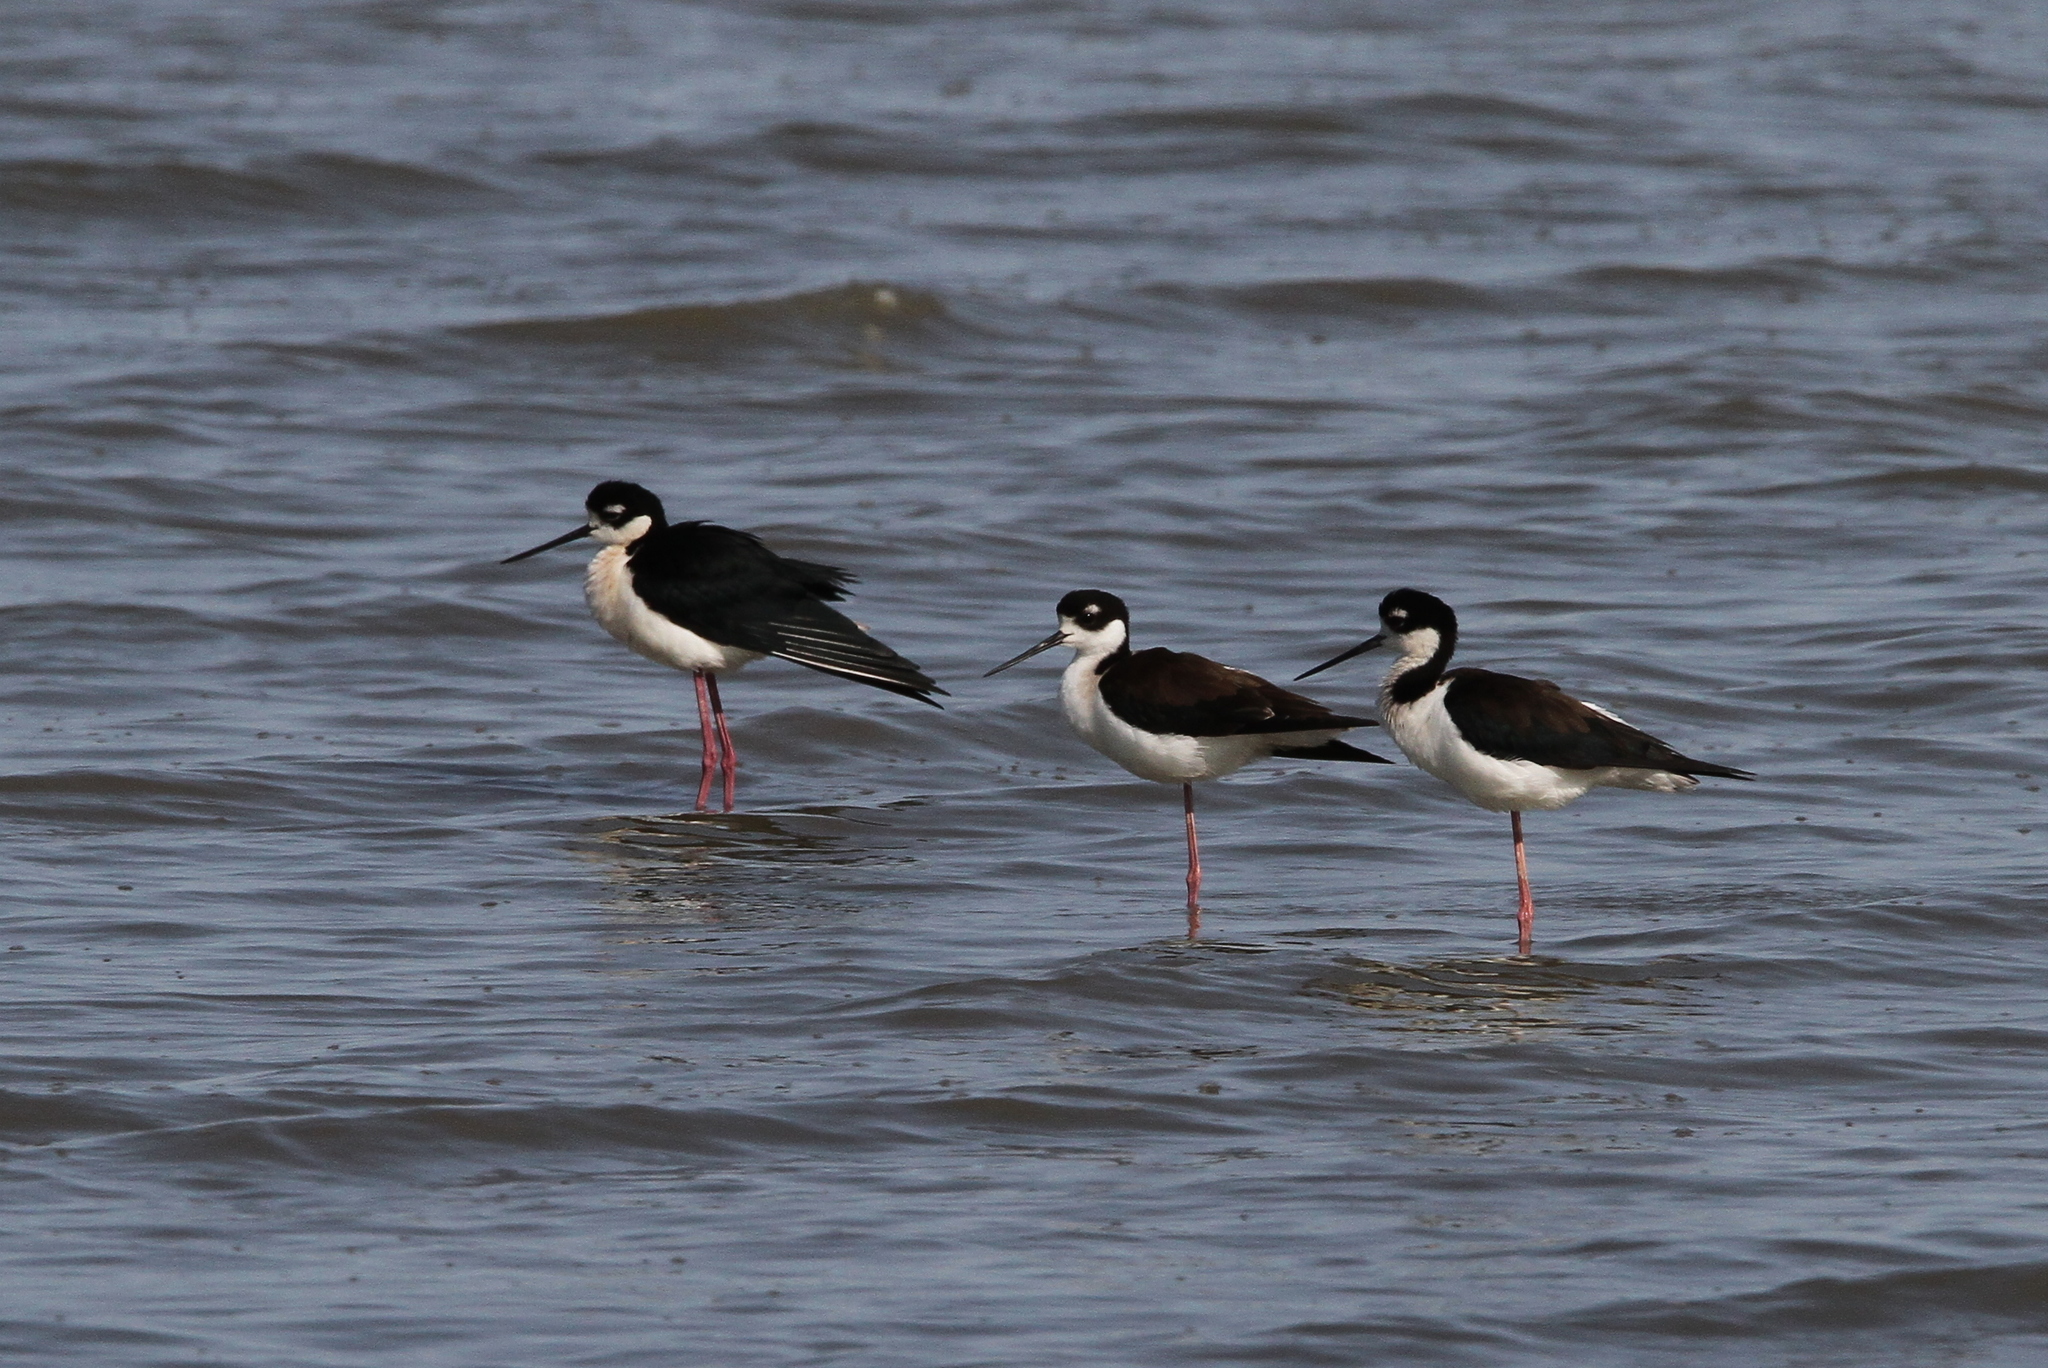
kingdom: Animalia
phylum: Chordata
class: Aves
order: Charadriiformes
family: Recurvirostridae
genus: Himantopus
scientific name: Himantopus mexicanus
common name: Black-necked stilt
